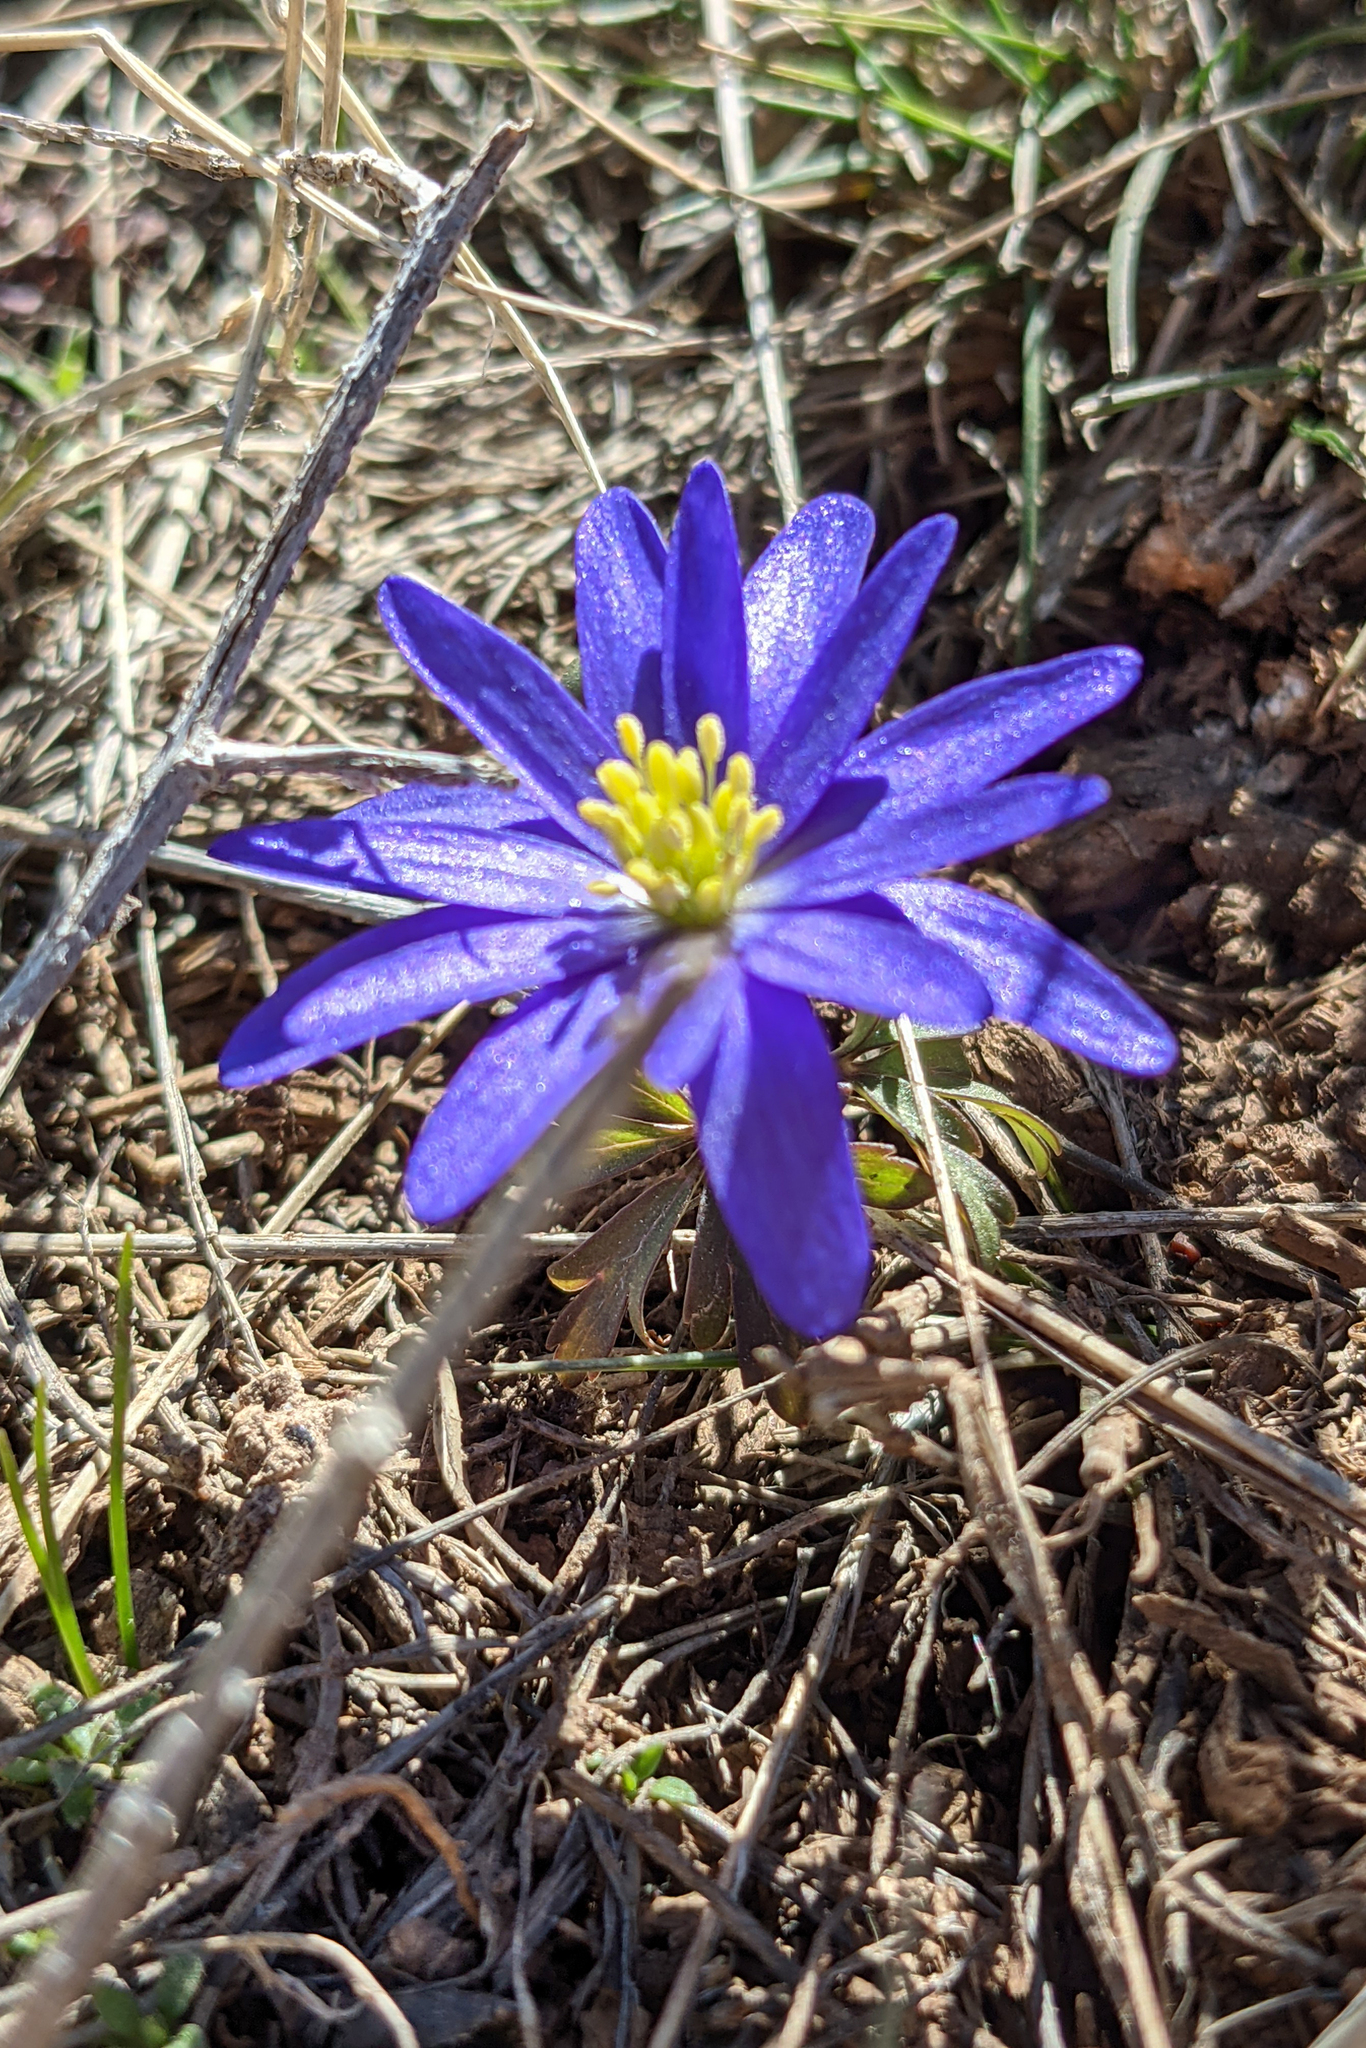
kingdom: Plantae
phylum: Tracheophyta
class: Magnoliopsida
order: Ranunculales
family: Ranunculaceae
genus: Anemone
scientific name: Anemone blanda
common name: Balkan anemone
